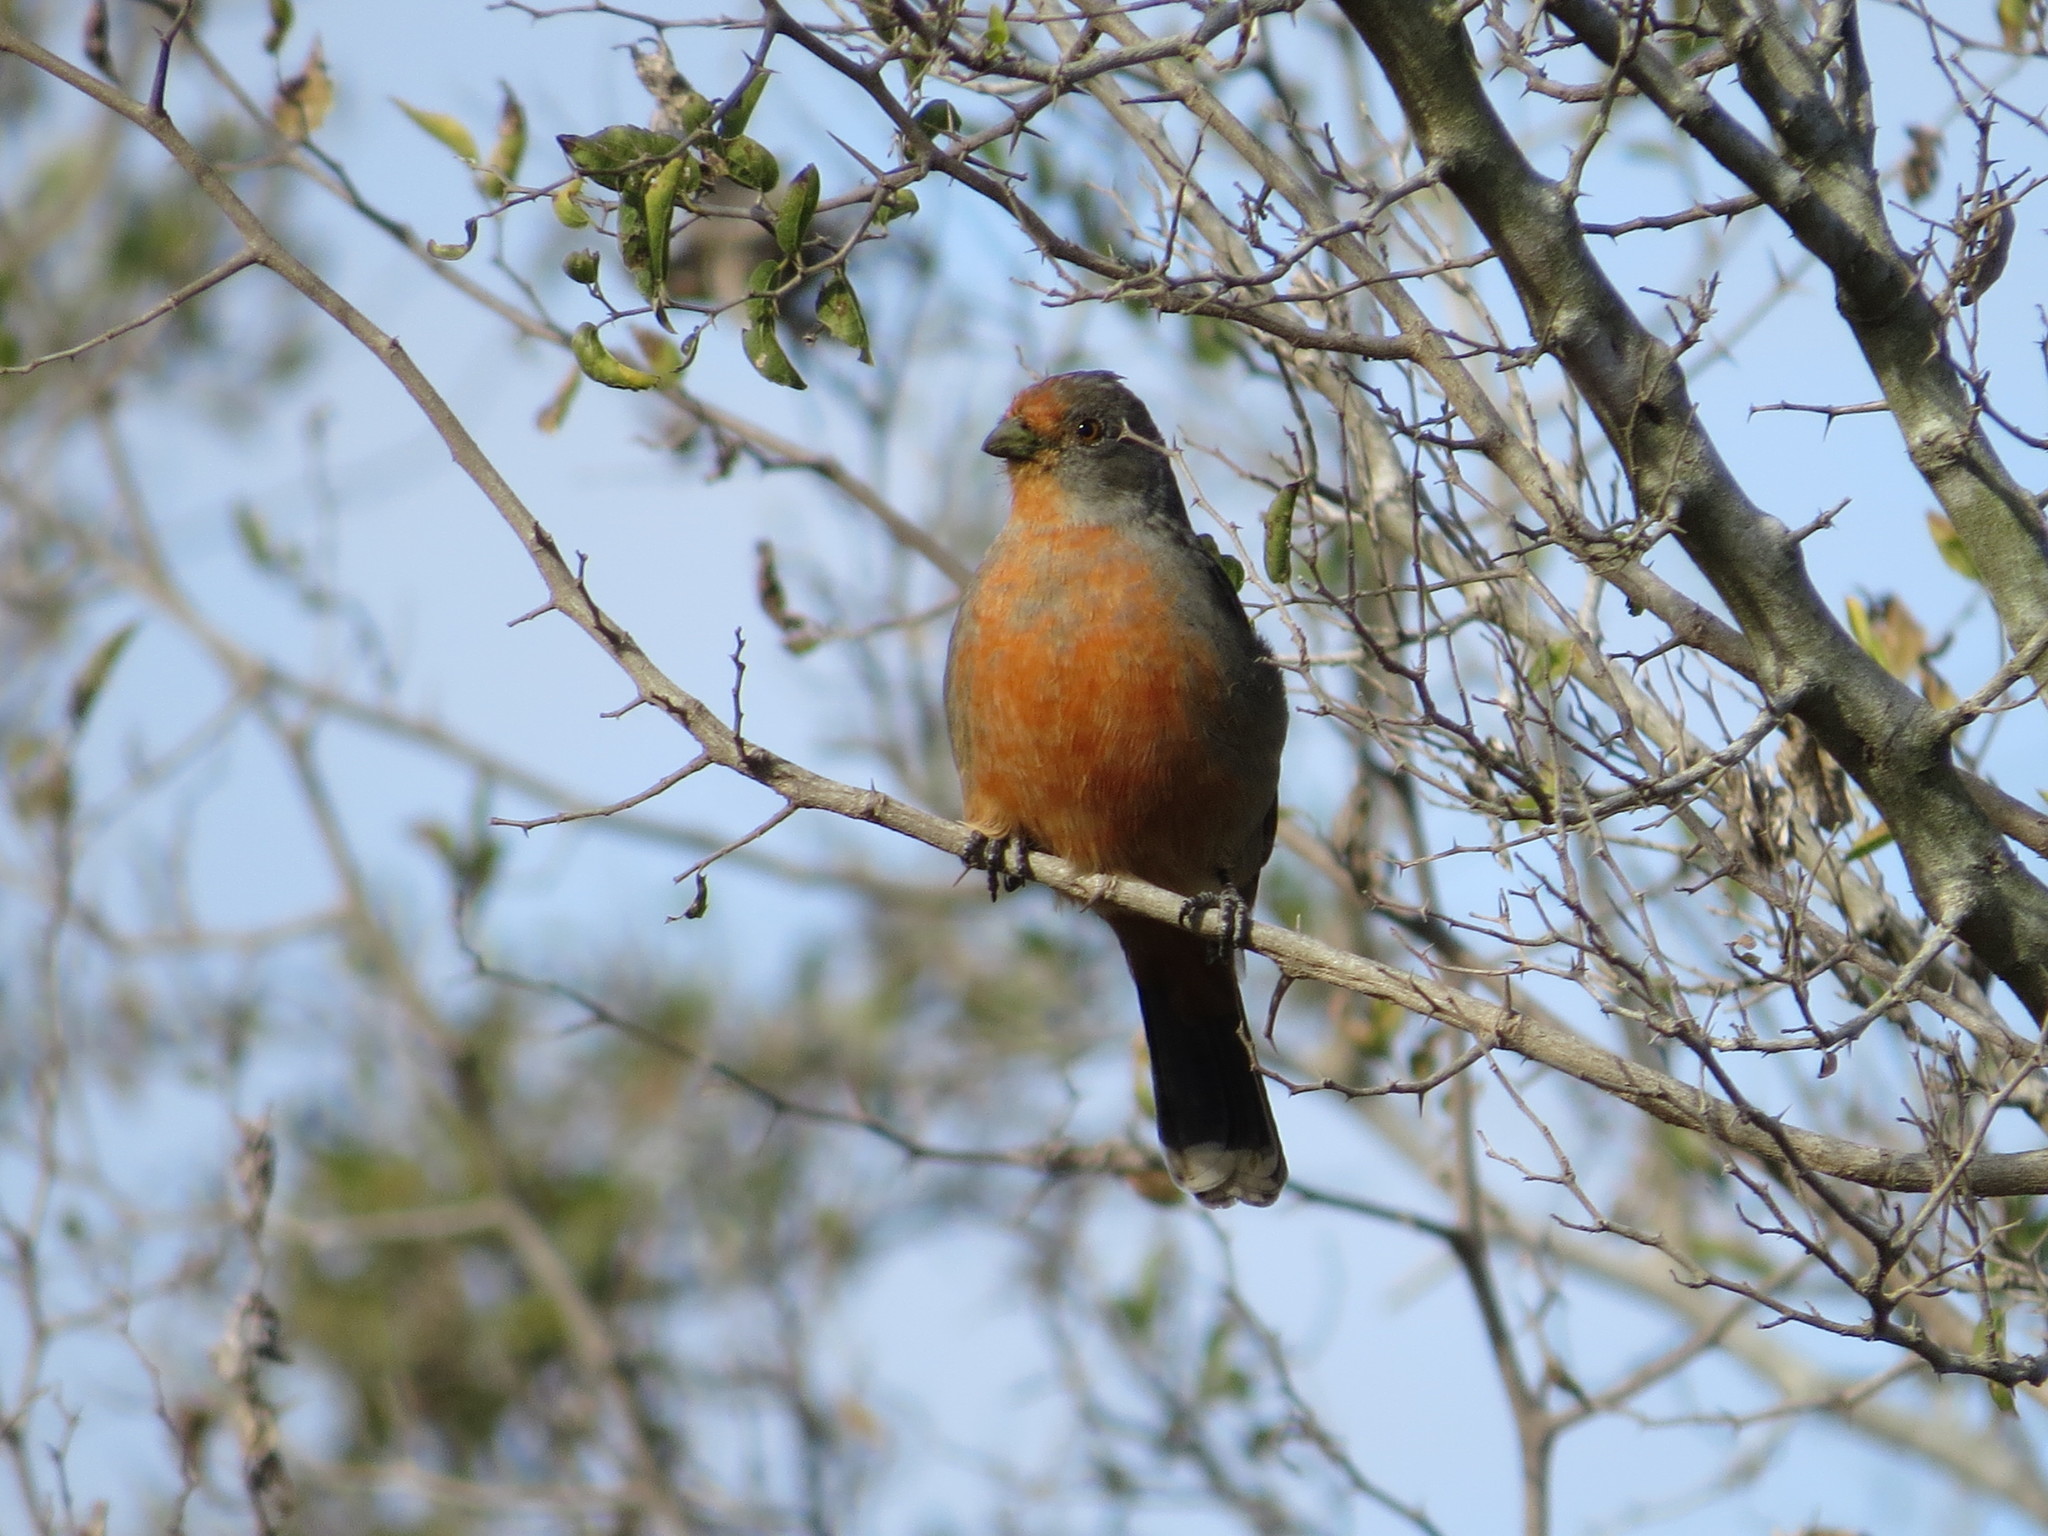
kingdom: Animalia
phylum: Chordata
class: Aves
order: Passeriformes
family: Cotingidae
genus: Phytotoma
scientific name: Phytotoma rutila
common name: White-tipped plantcutter
